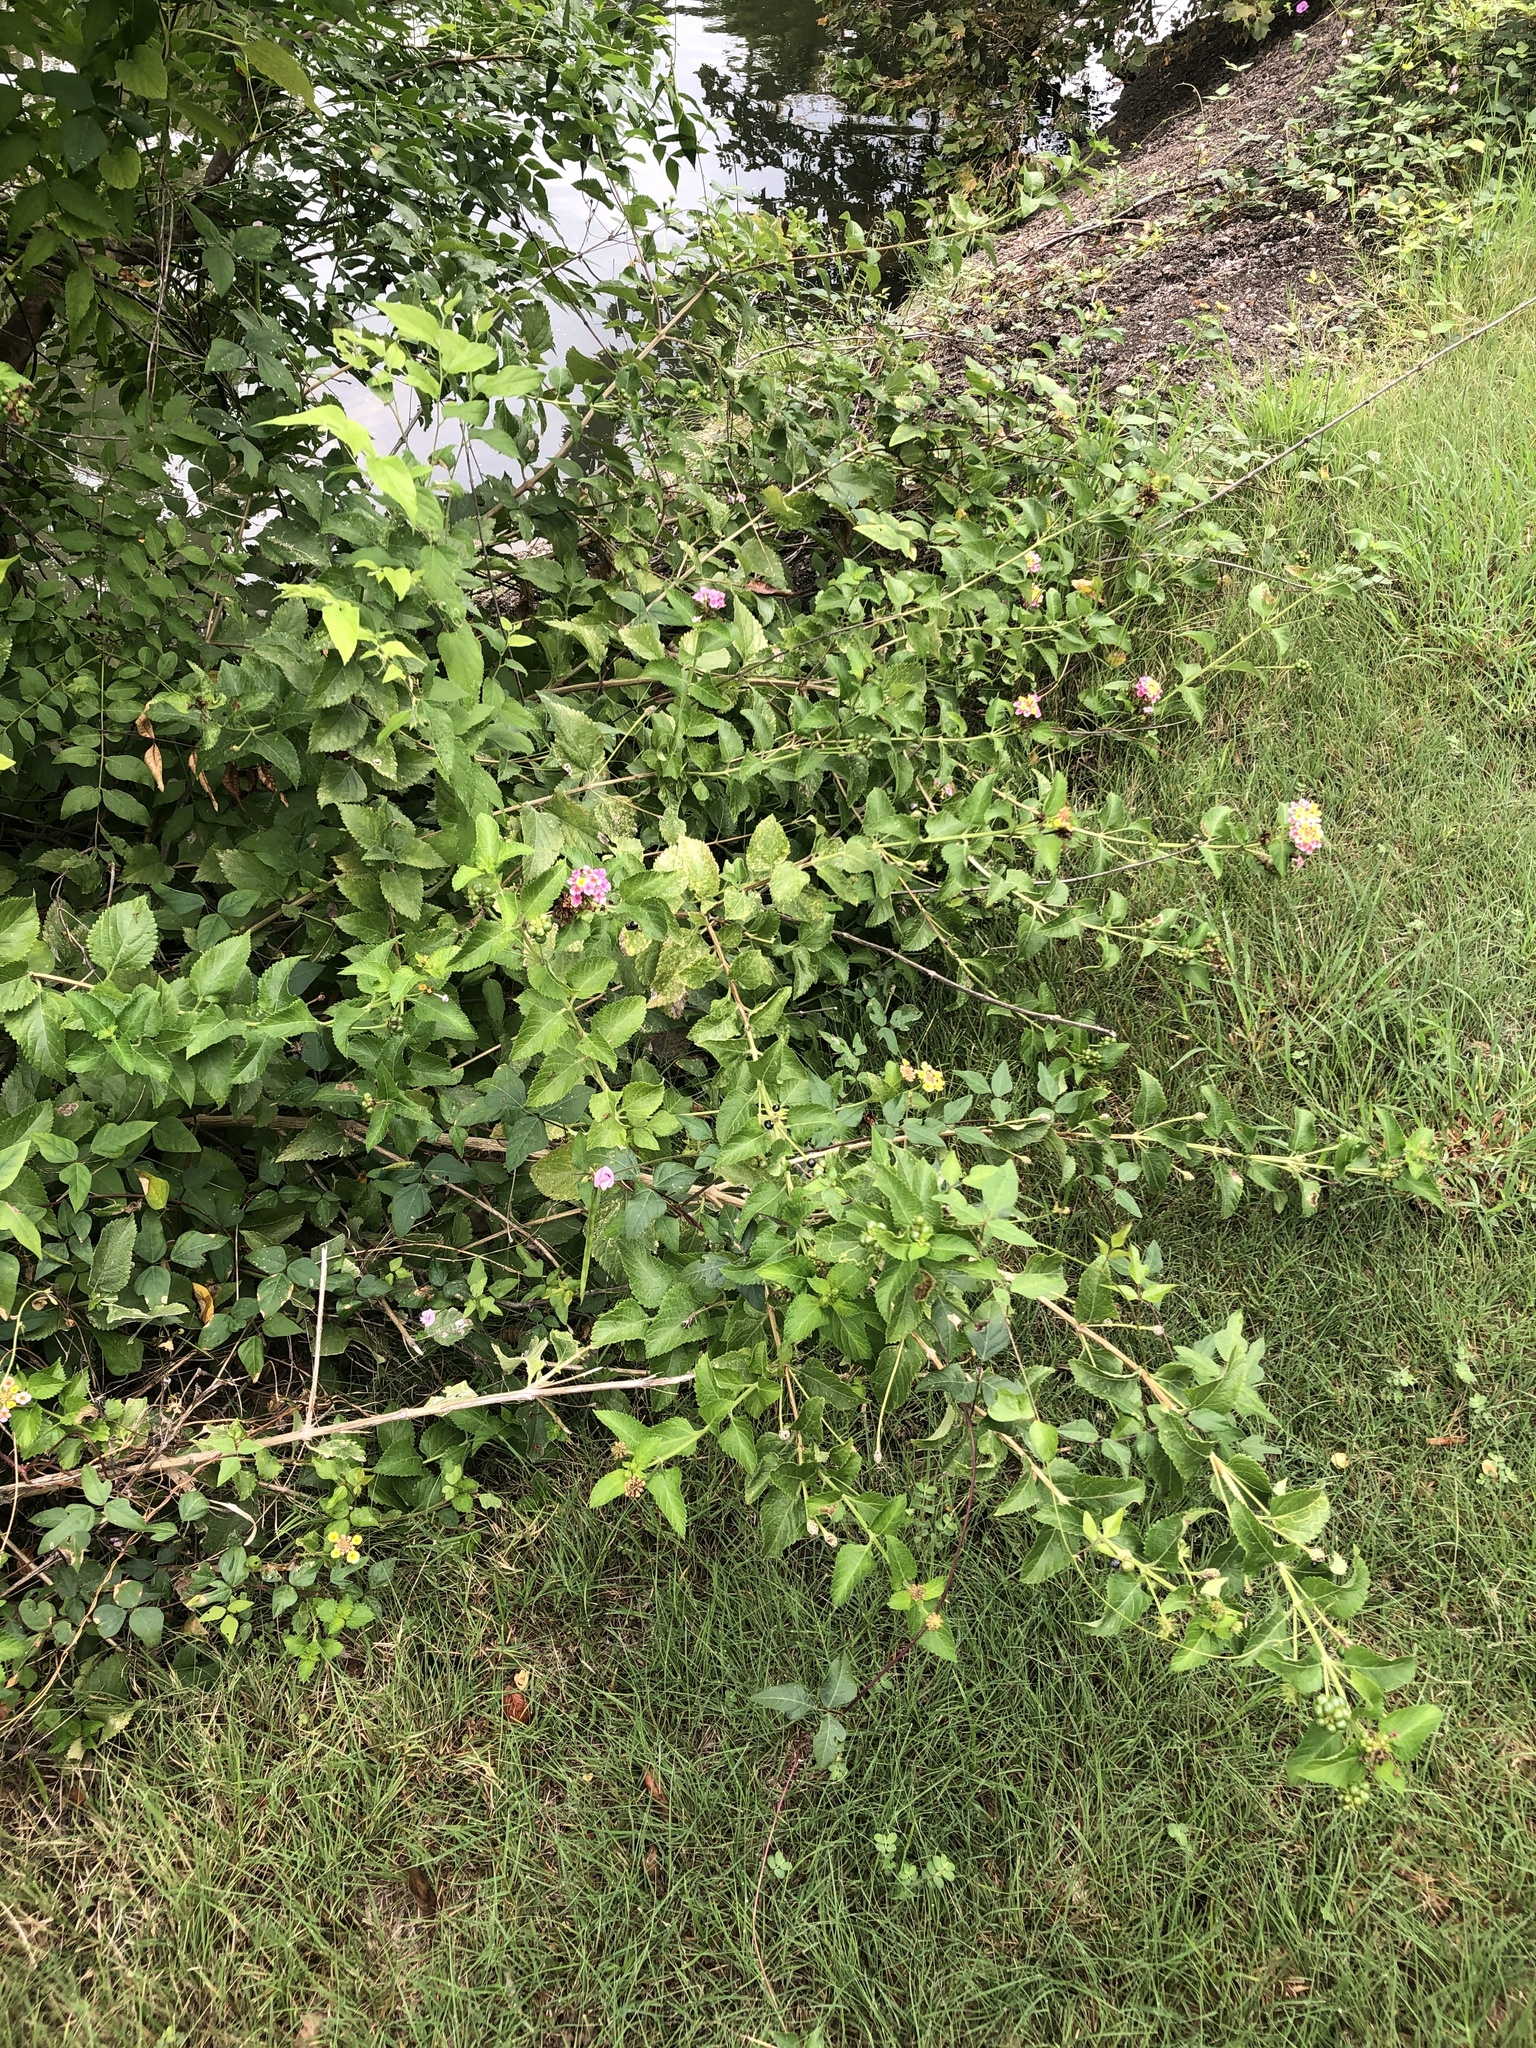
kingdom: Plantae
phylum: Tracheophyta
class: Magnoliopsida
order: Lamiales
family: Verbenaceae
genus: Lantana
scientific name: Lantana strigocamara
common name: Lantana
